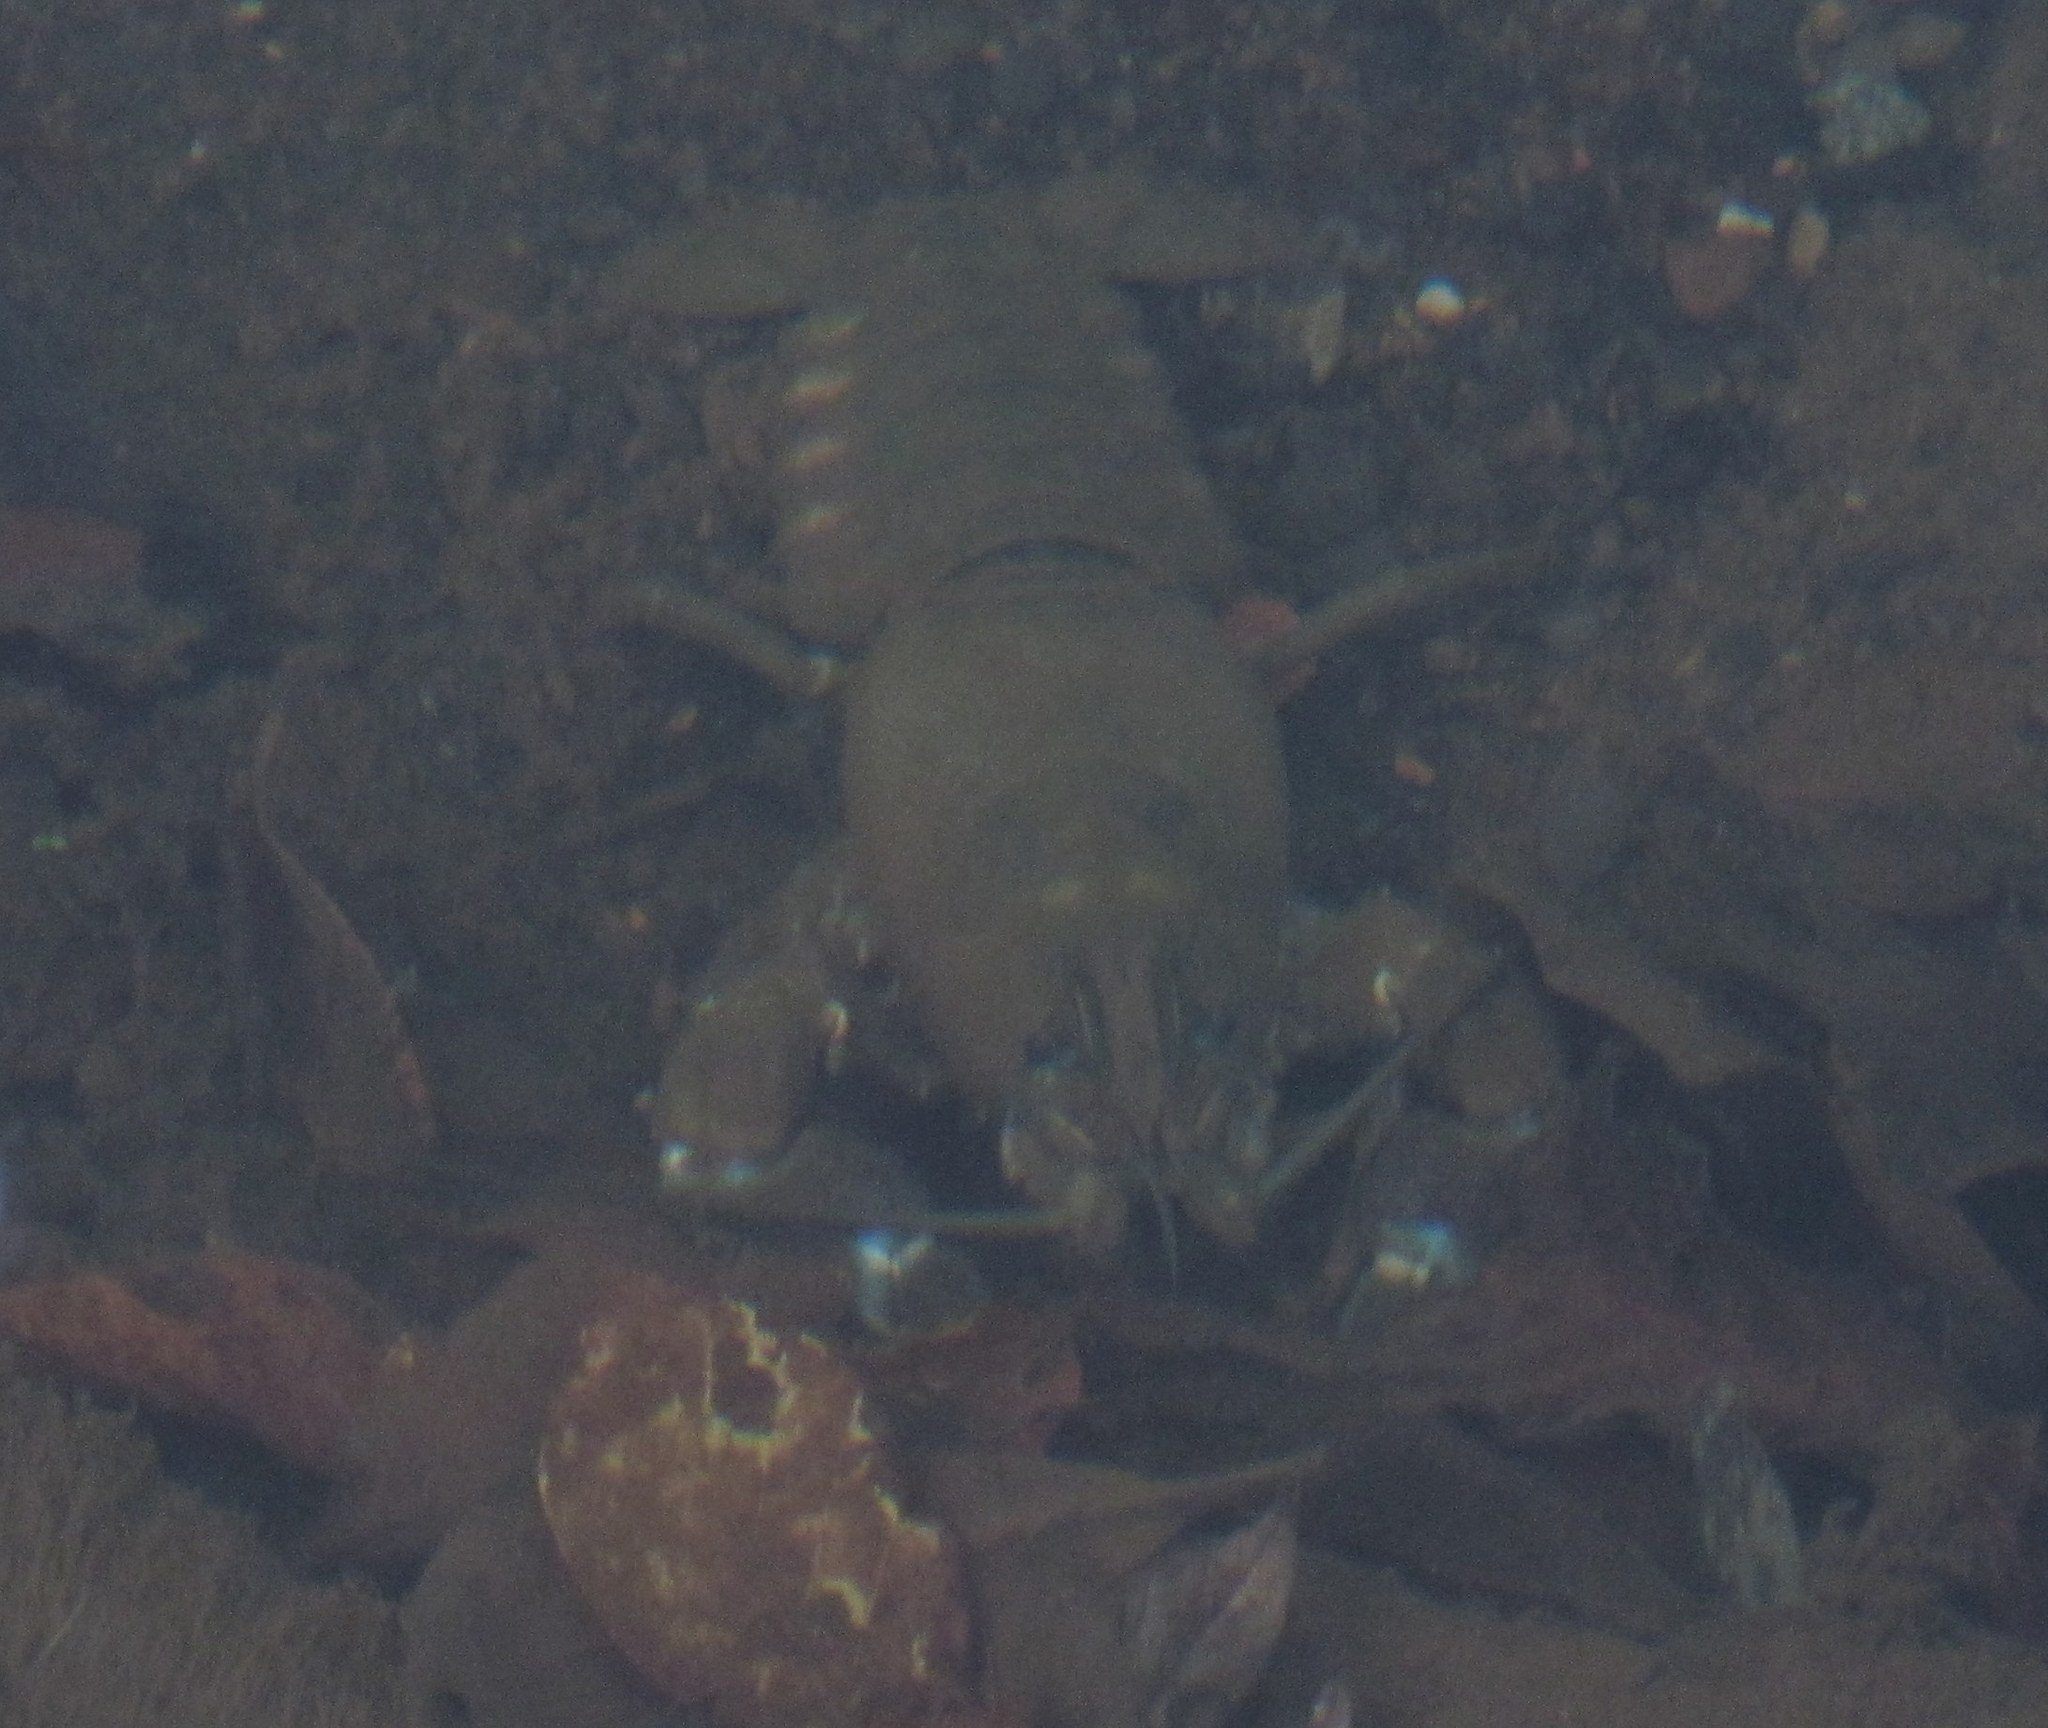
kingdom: Animalia
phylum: Arthropoda
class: Malacostraca
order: Decapoda
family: Astacidae
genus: Pacifastacus
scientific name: Pacifastacus leniusculus
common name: Signal crayfish
